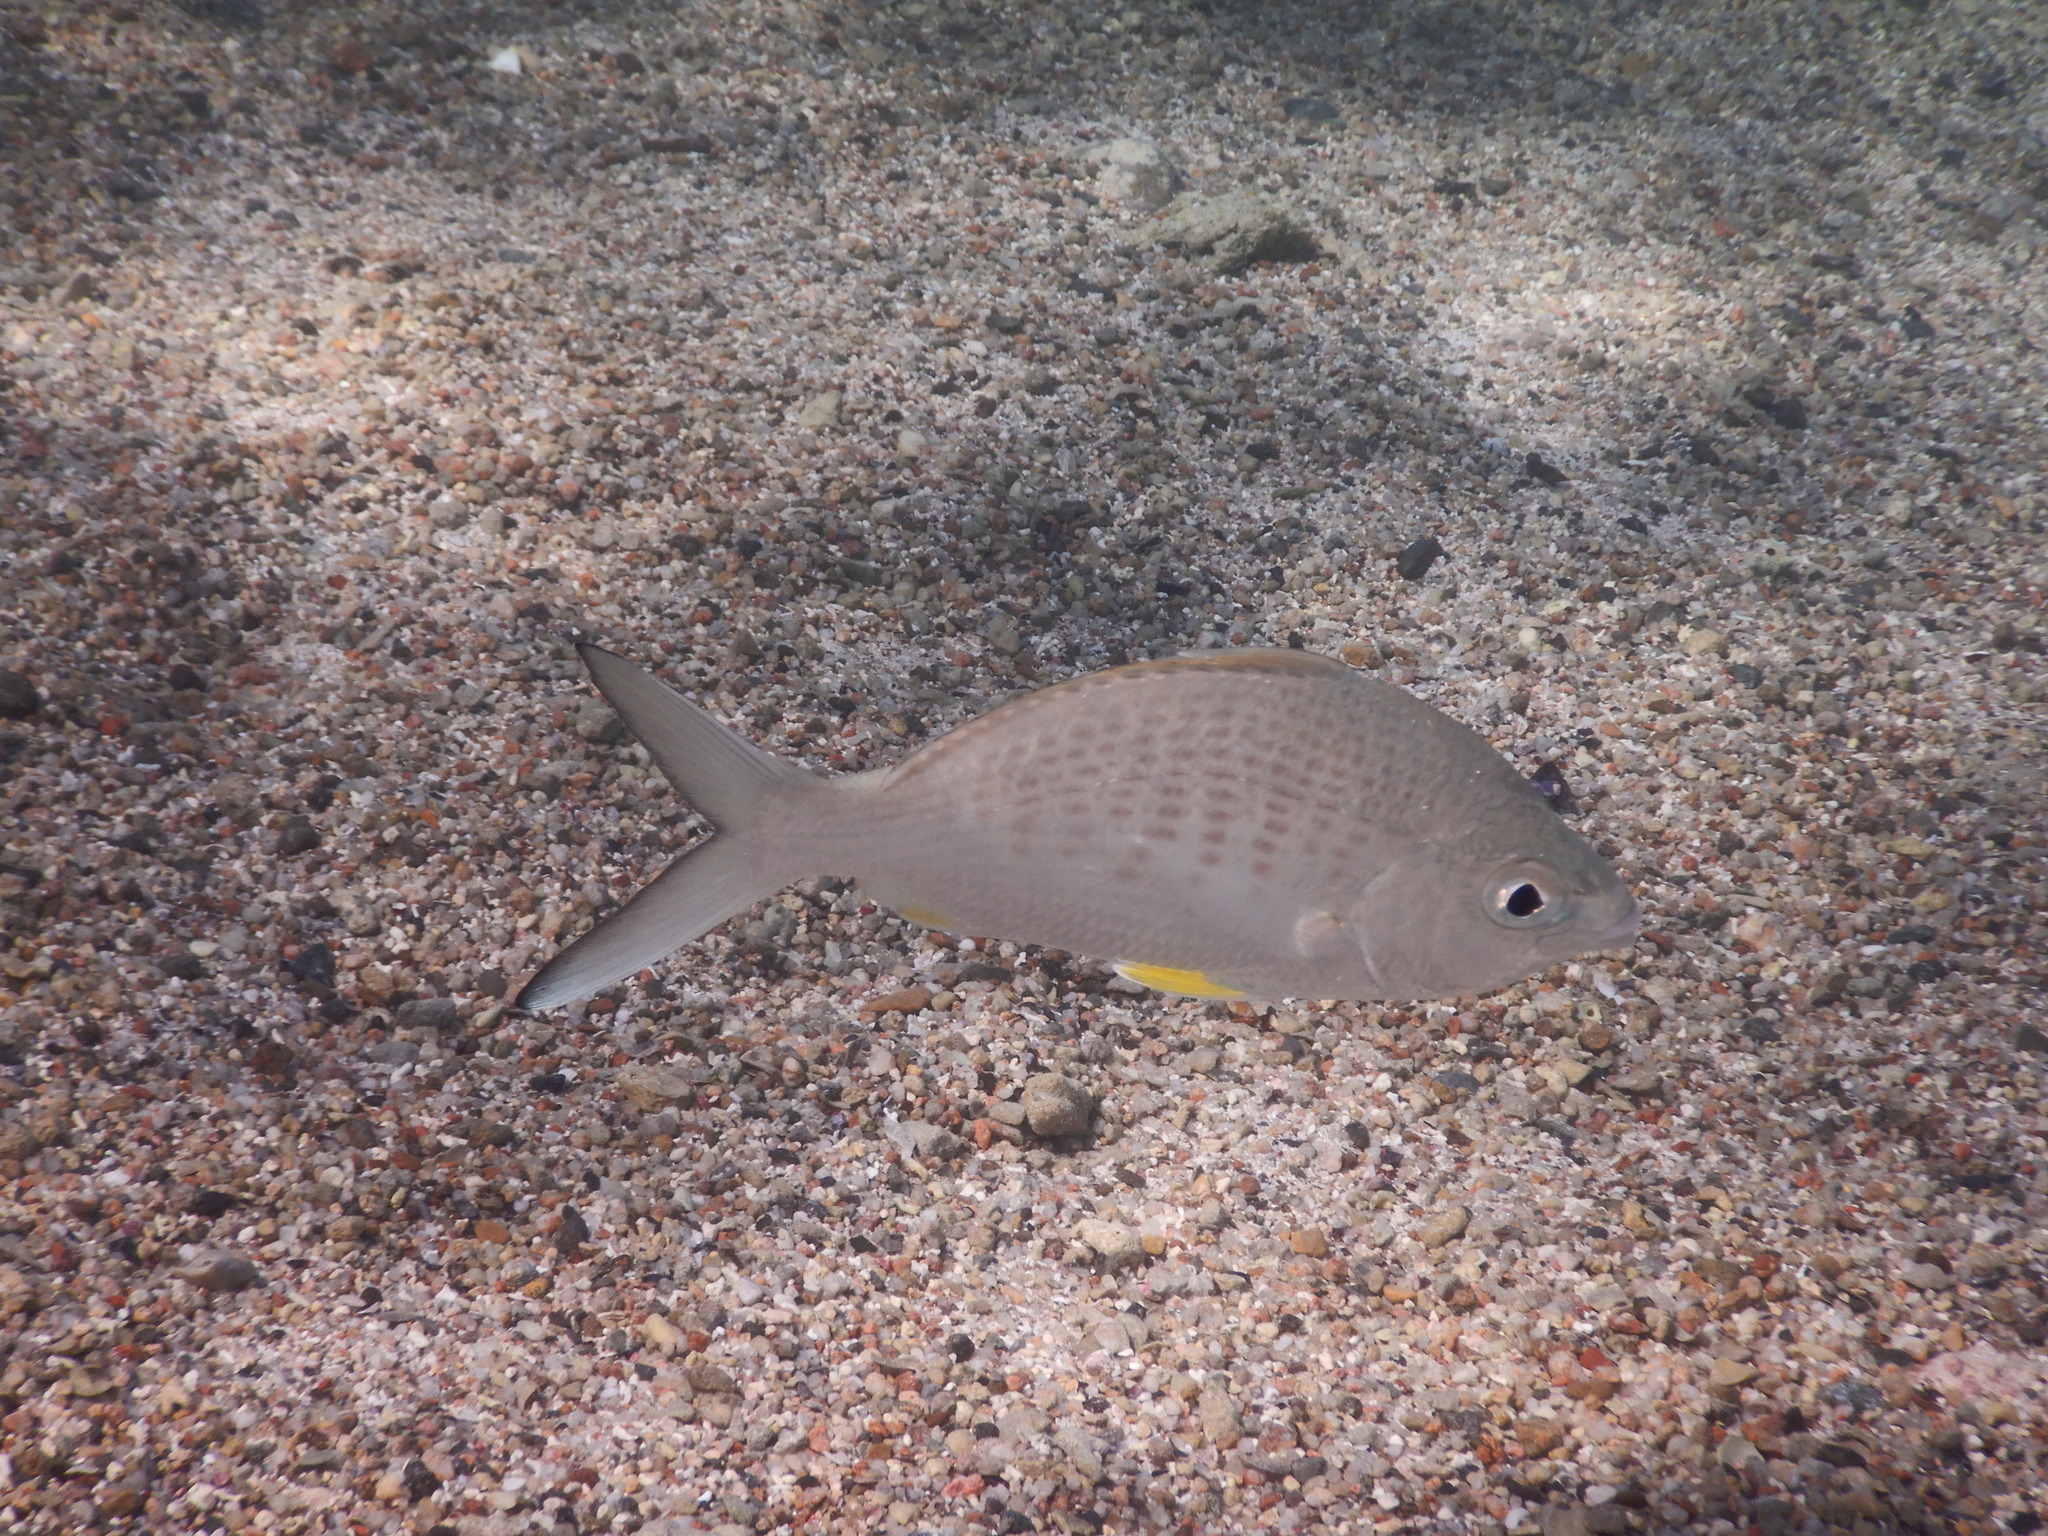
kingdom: Animalia
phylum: Chordata
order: Perciformes
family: Gerreidae
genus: Gerres
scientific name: Gerres longirostris
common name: Strongspine silver-biddy
